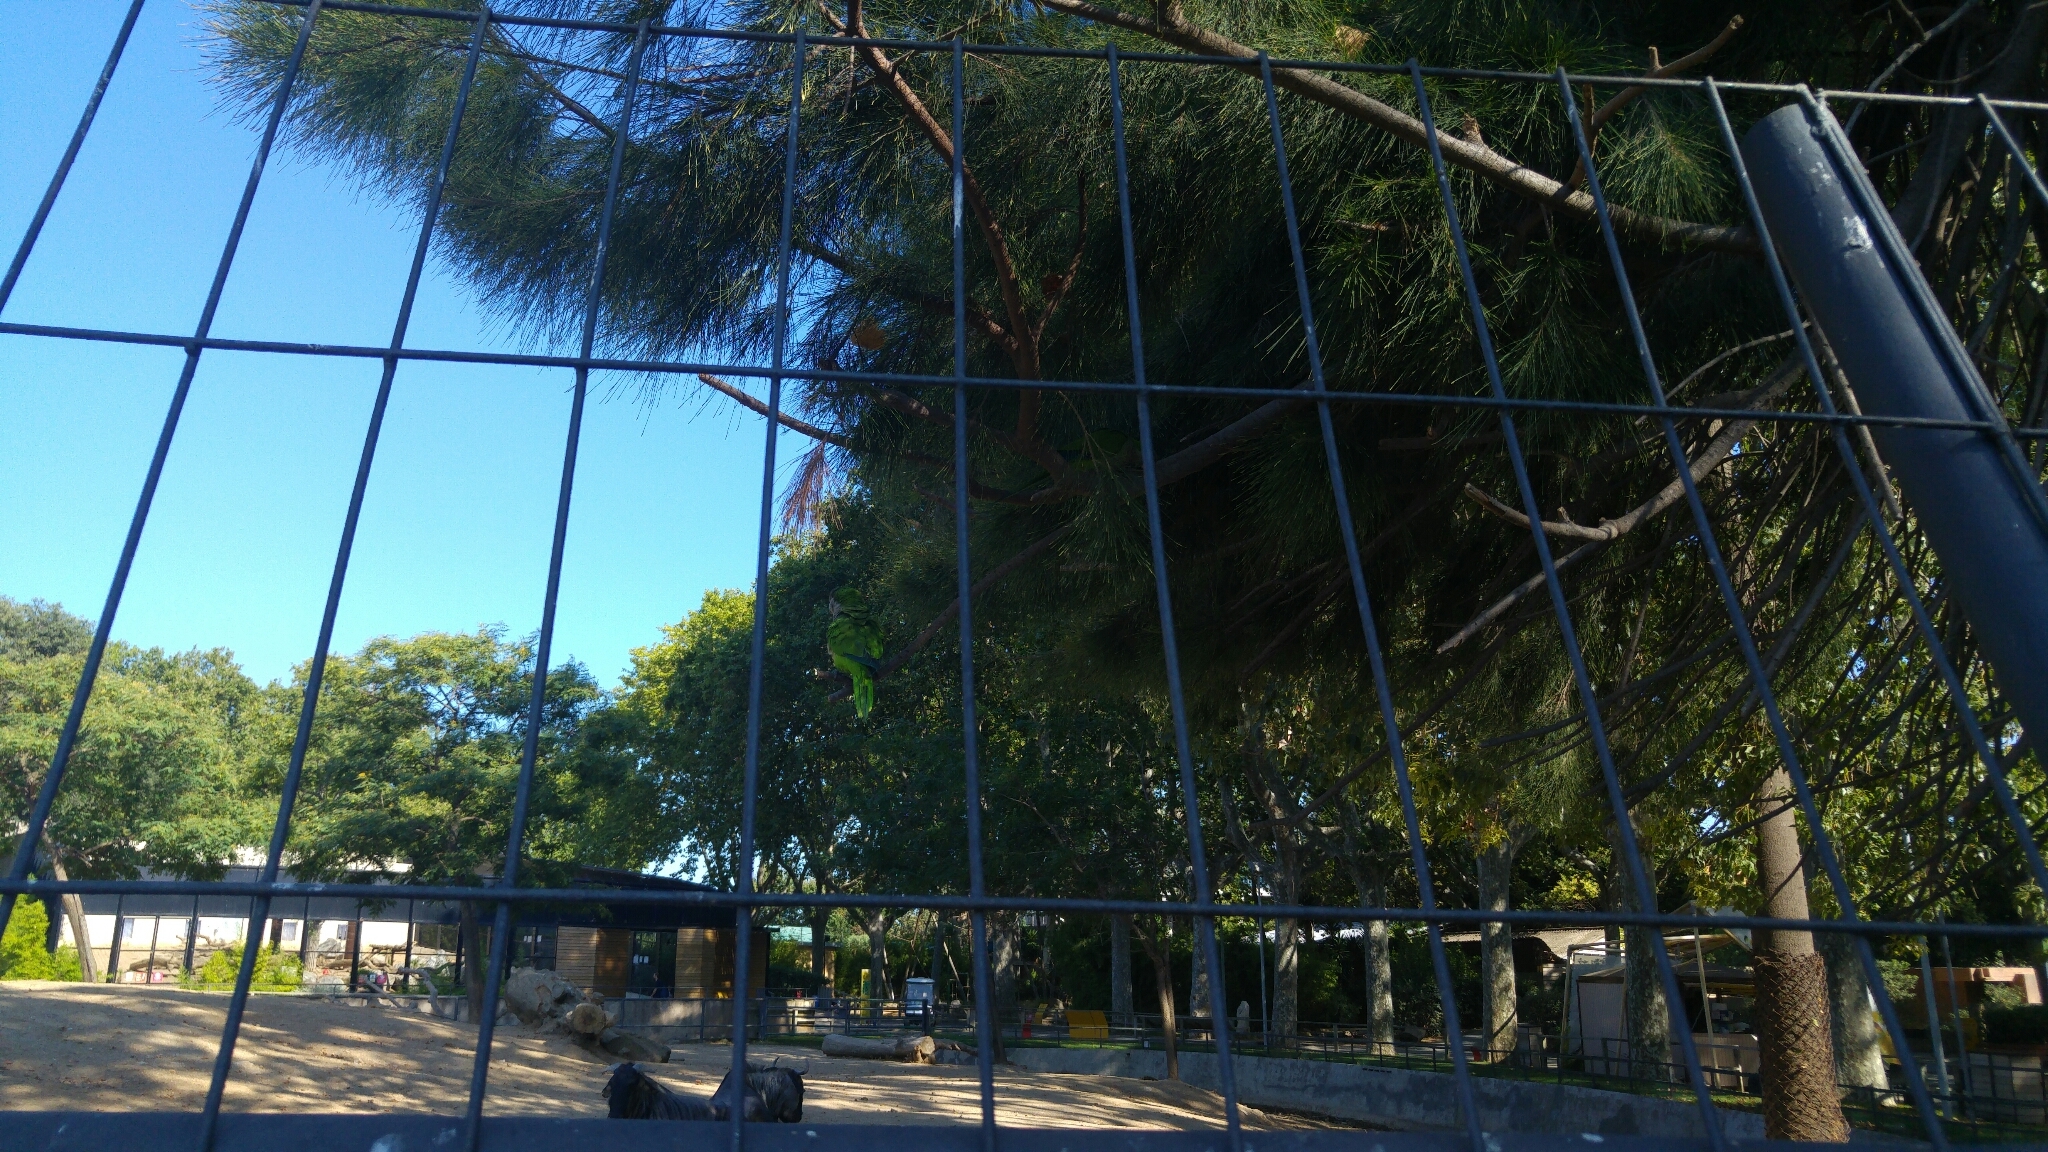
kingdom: Animalia
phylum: Chordata
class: Aves
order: Psittaciformes
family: Psittacidae
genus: Myiopsitta
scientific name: Myiopsitta monachus
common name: Monk parakeet
